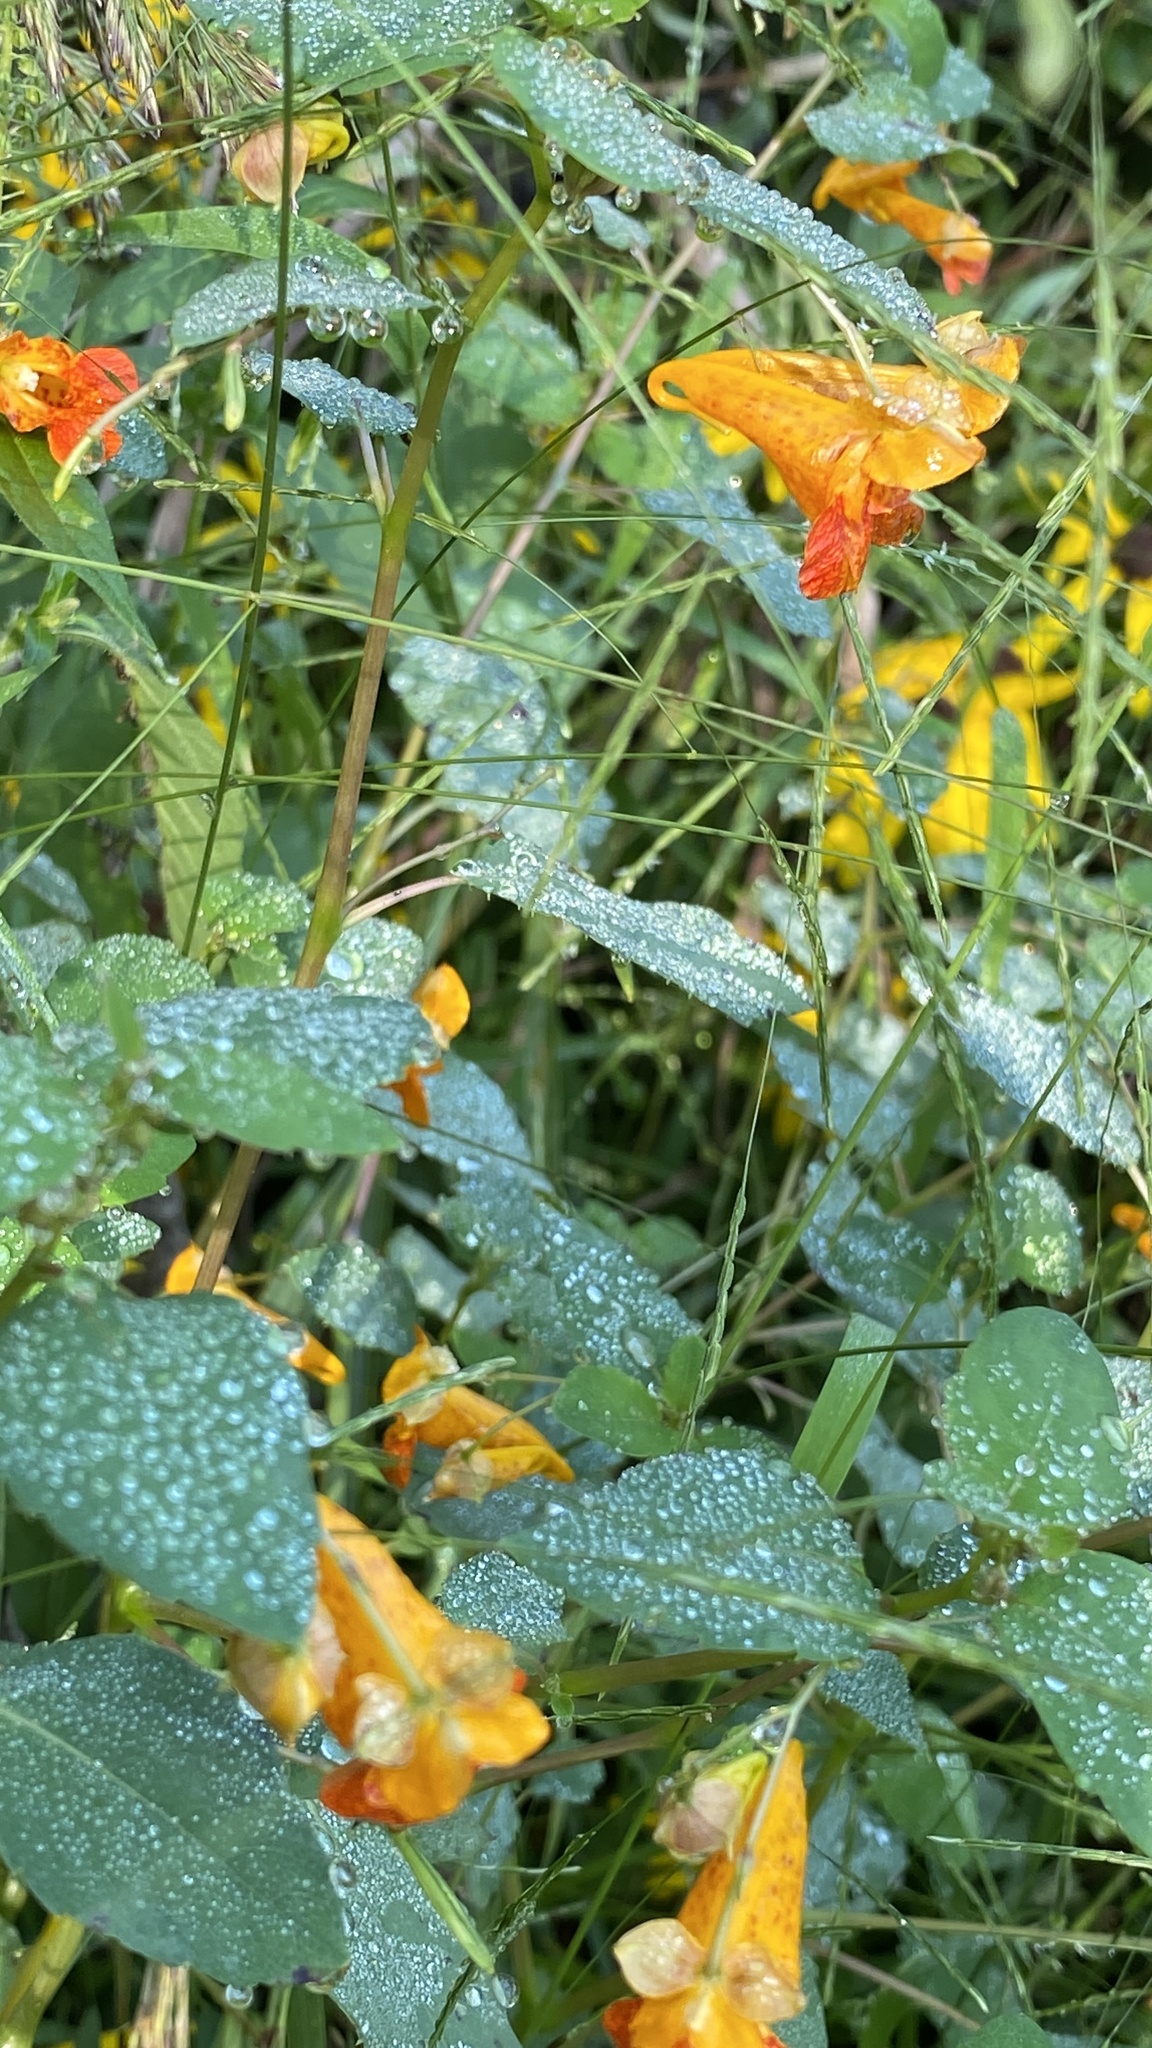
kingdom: Plantae
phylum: Tracheophyta
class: Magnoliopsida
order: Ericales
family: Balsaminaceae
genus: Impatiens
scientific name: Impatiens capensis
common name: Orange balsam
